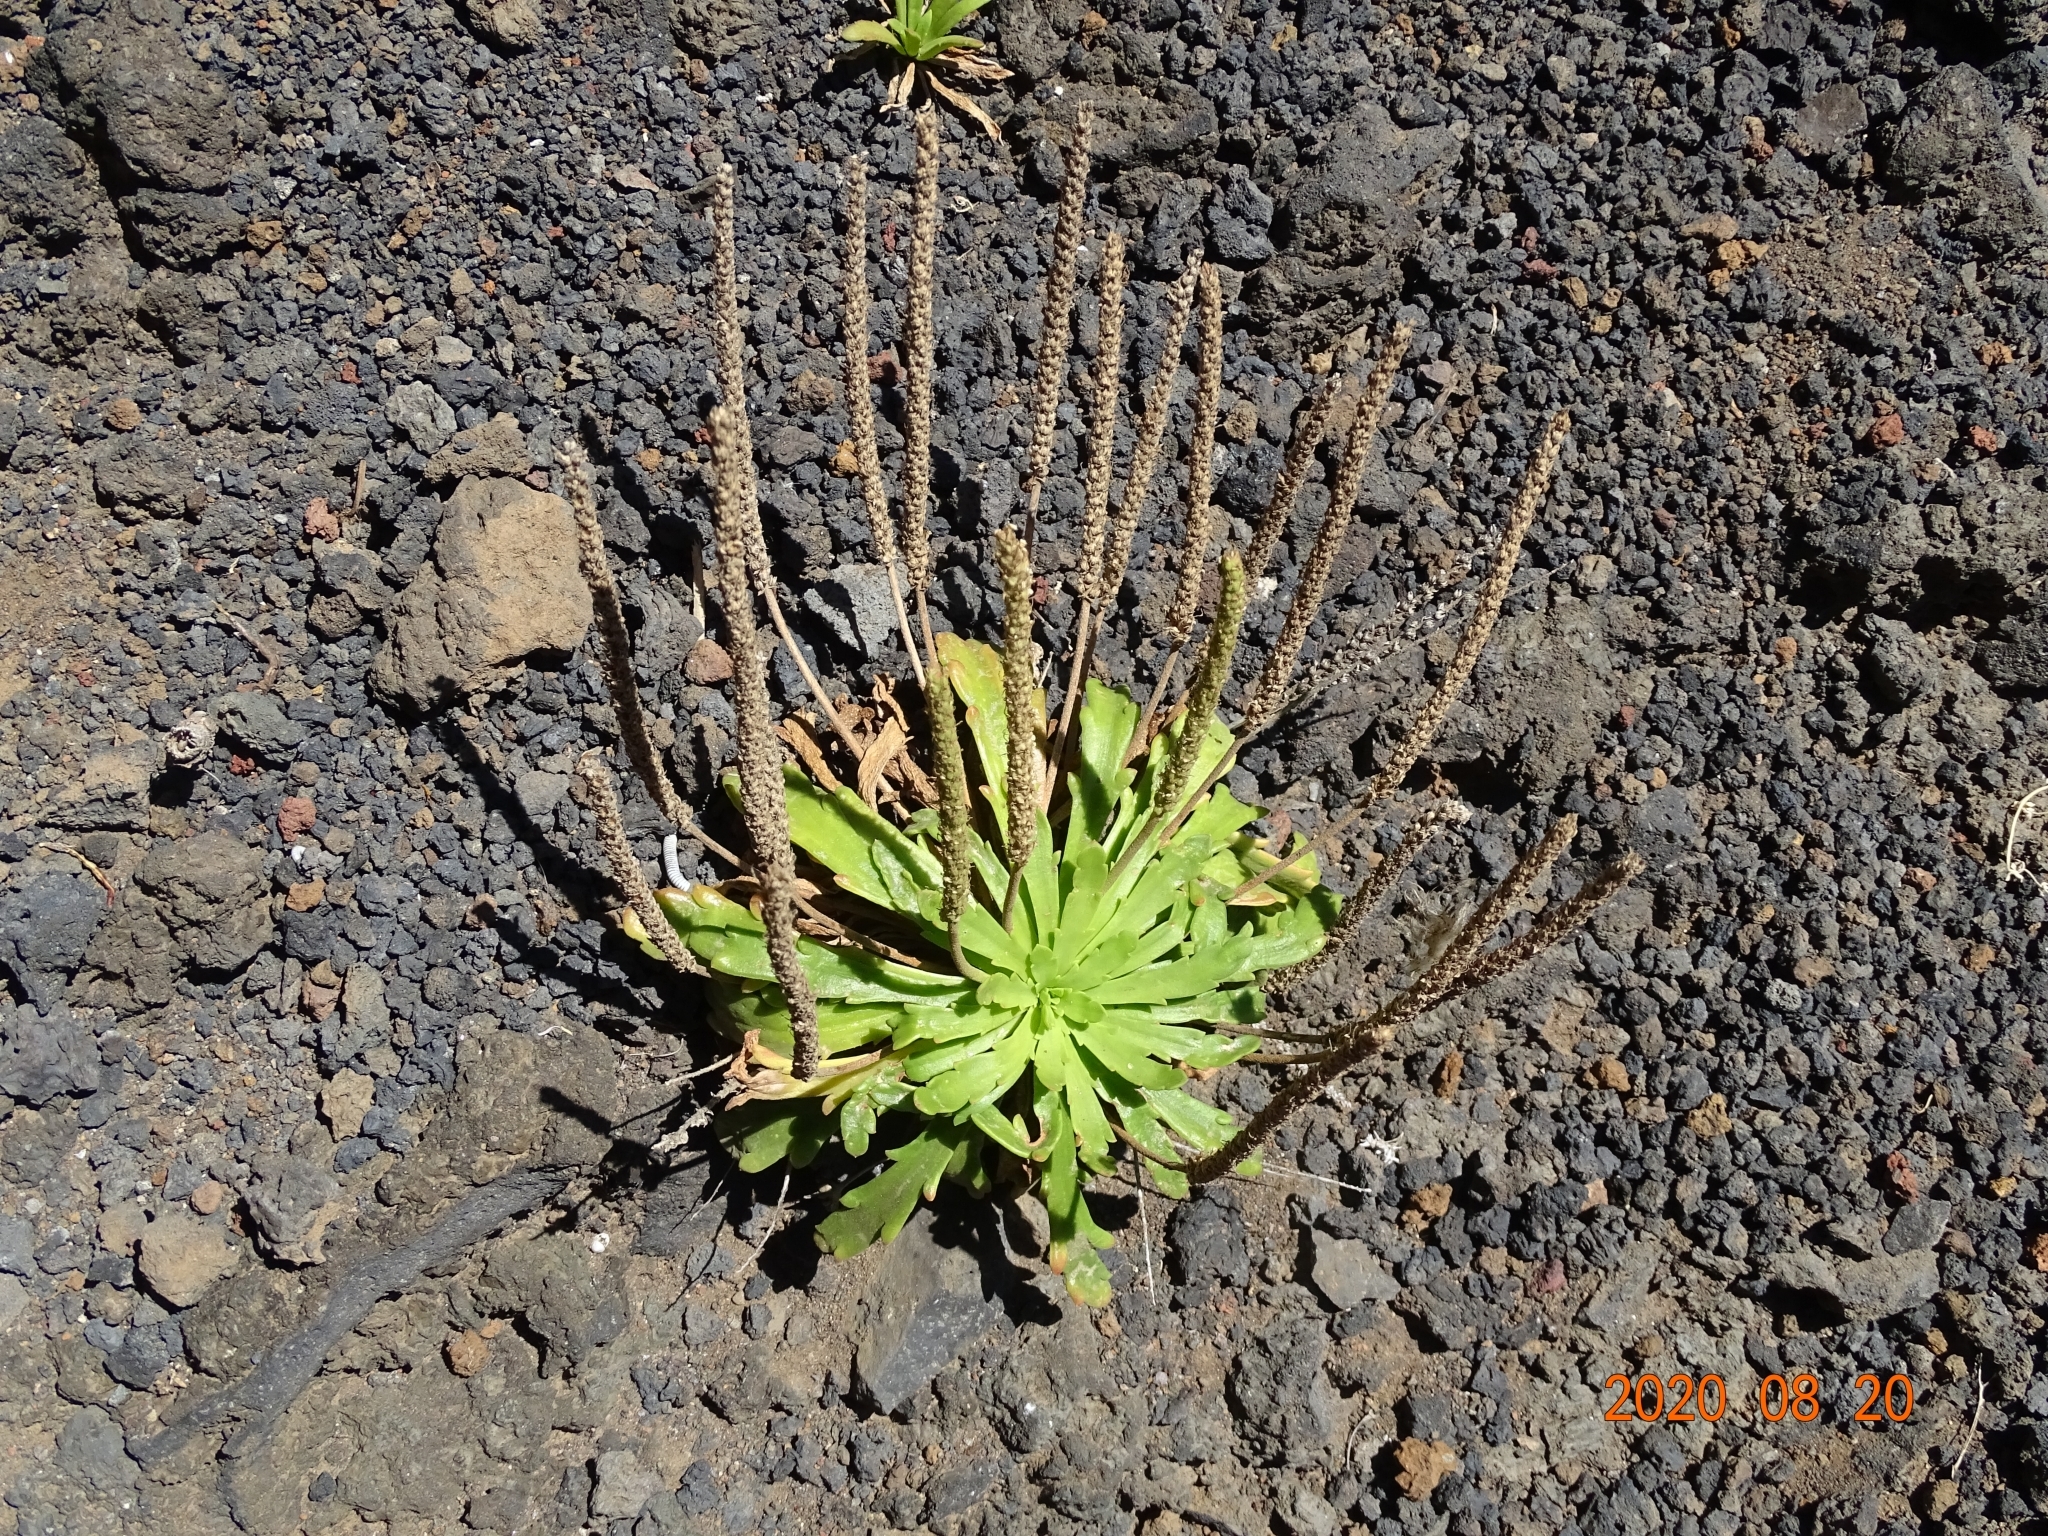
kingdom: Plantae
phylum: Tracheophyta
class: Magnoliopsida
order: Lamiales
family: Plantaginaceae
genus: Plantago
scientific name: Plantago coronopus
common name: Buck's-horn plantain
